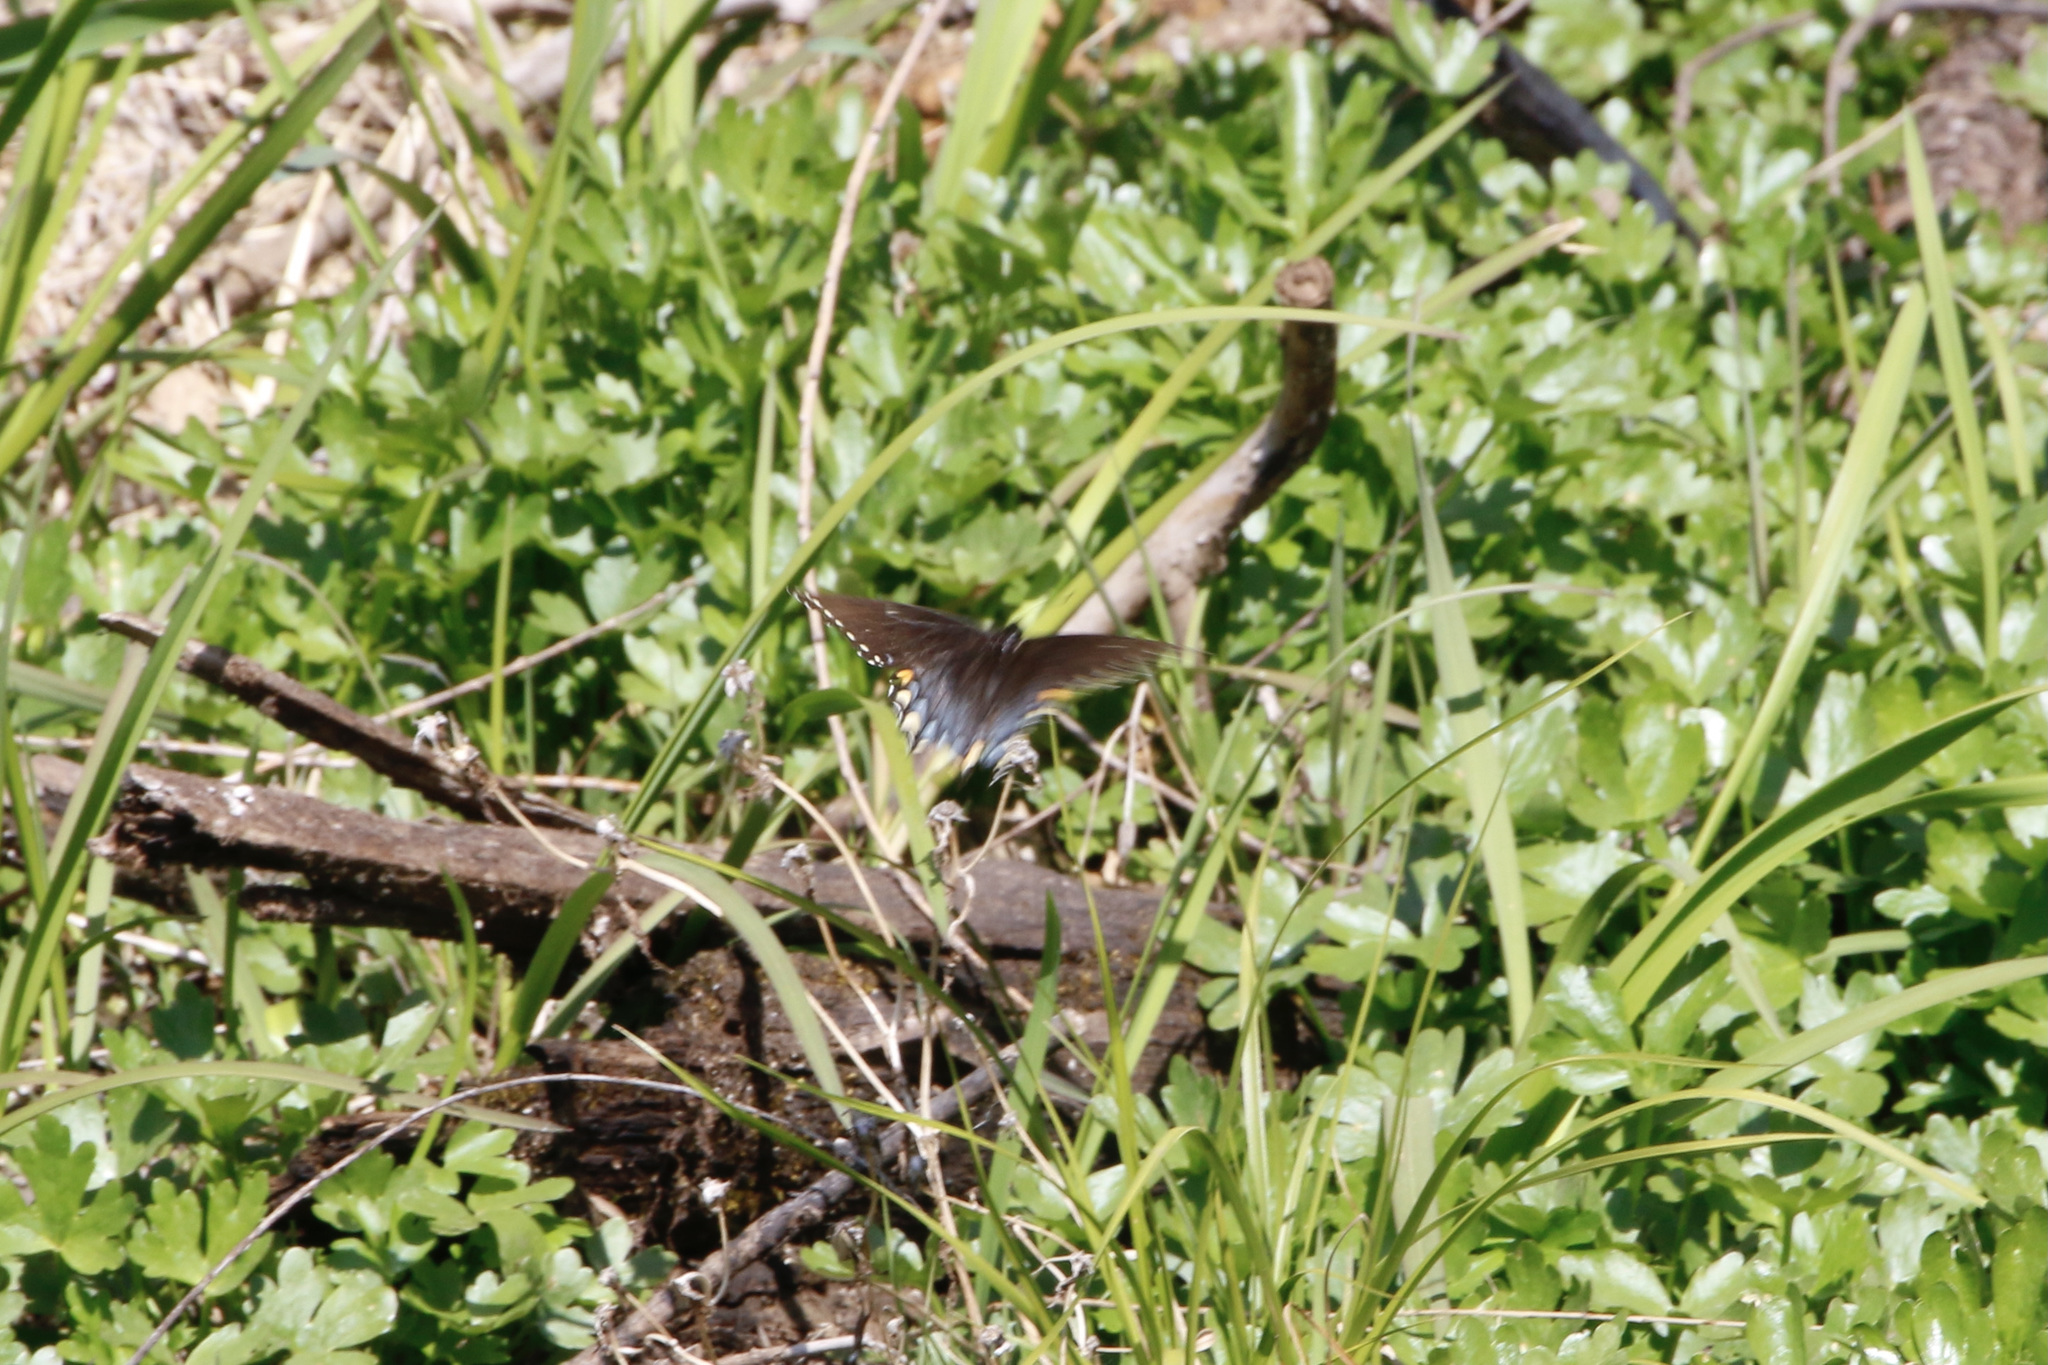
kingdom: Animalia
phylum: Arthropoda
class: Insecta
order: Lepidoptera
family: Papilionidae
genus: Papilio
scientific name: Papilio glaucus
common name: Tiger swallowtail
